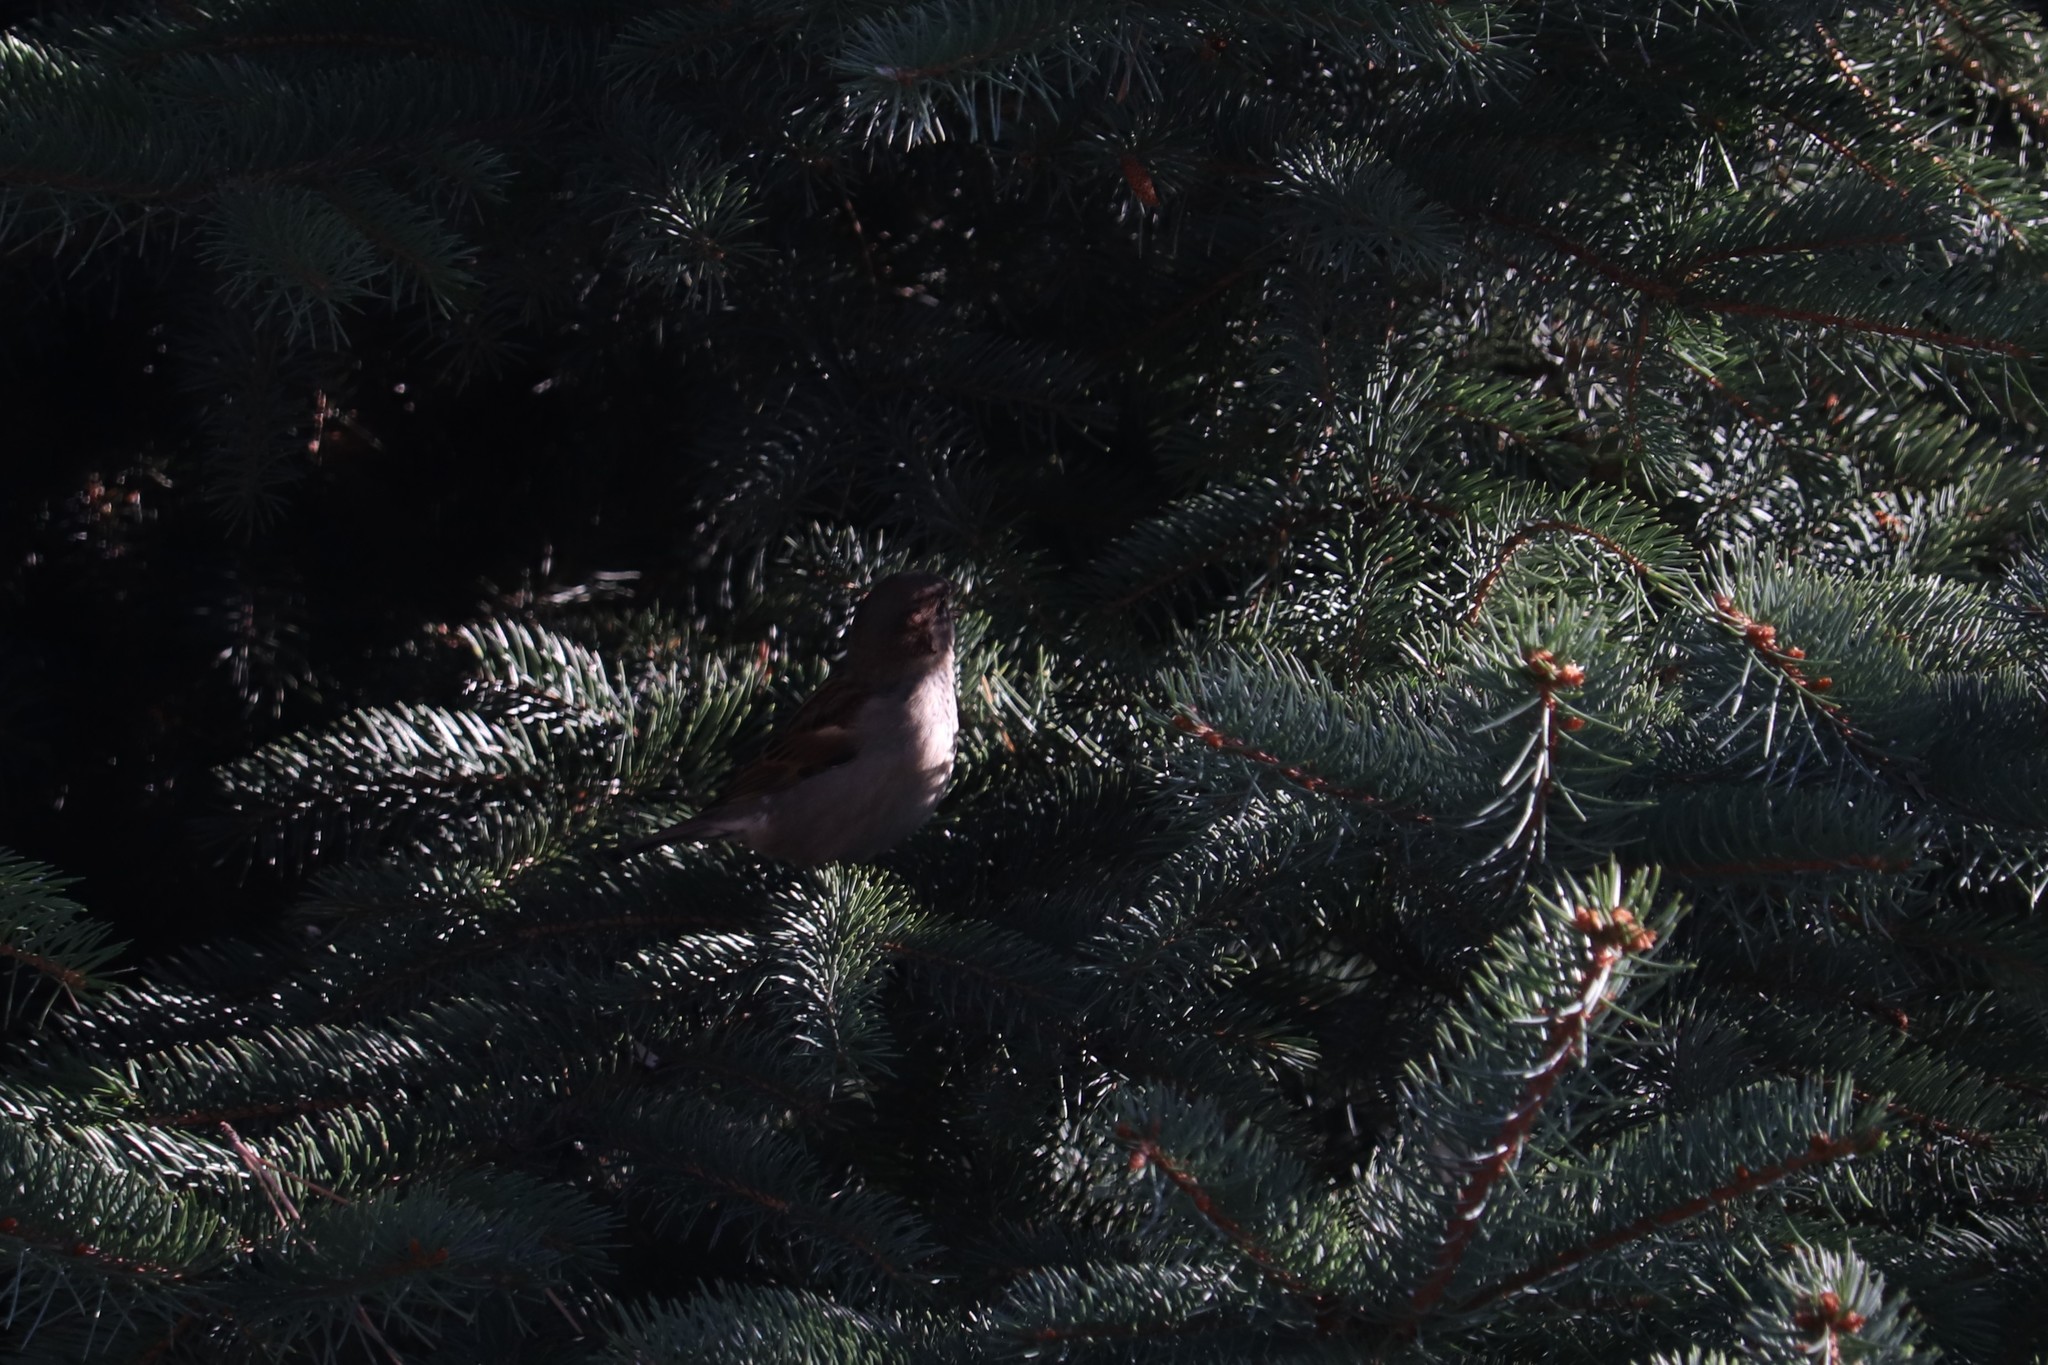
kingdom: Animalia
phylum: Chordata
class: Aves
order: Passeriformes
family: Passeridae
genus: Passer
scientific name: Passer domesticus
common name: House sparrow
